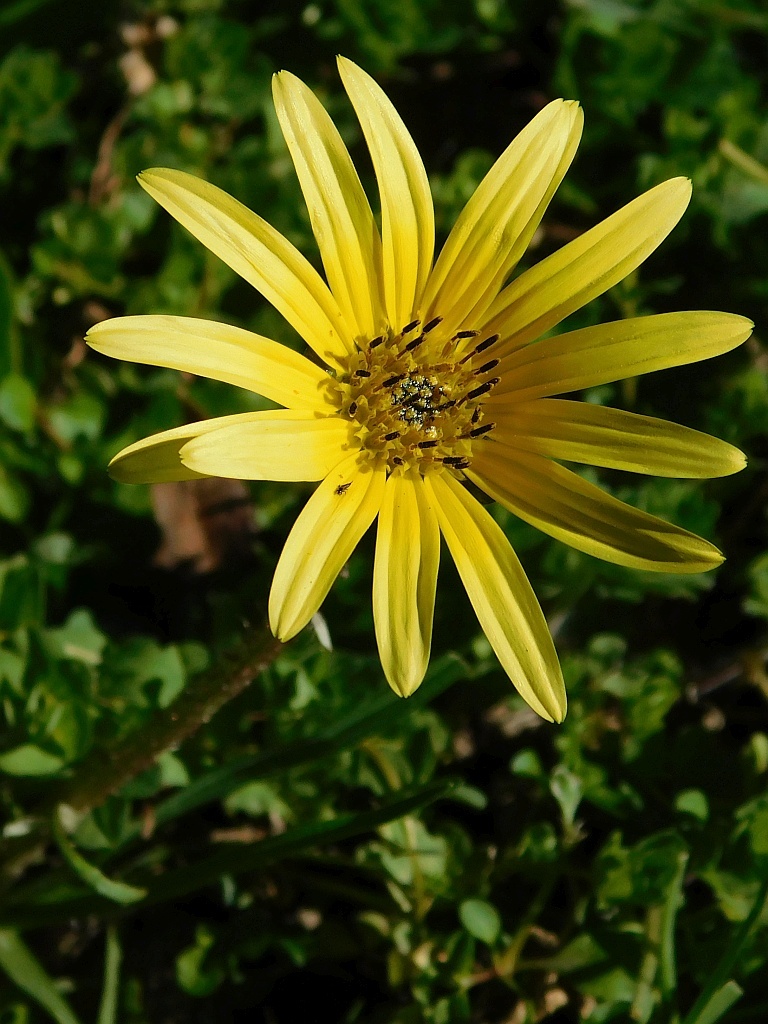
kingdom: Plantae
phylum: Tracheophyta
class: Magnoliopsida
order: Asterales
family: Asteraceae
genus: Arctotheca
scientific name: Arctotheca calendula
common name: Capeweed
